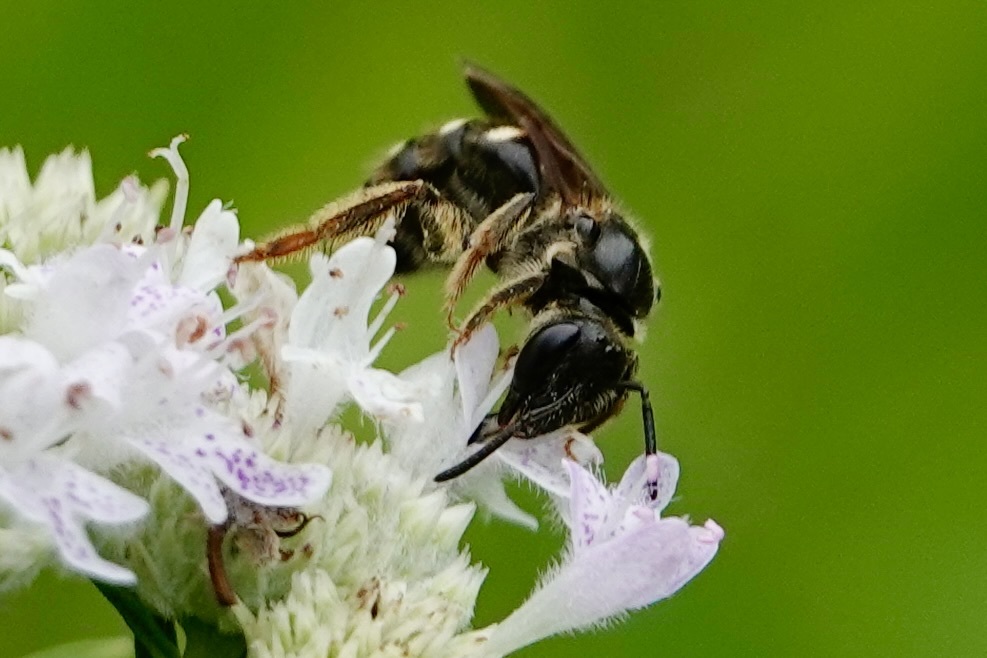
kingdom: Animalia
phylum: Arthropoda
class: Insecta
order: Hymenoptera
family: Halictidae
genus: Lasioglossum
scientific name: Lasioglossum fuscipenne
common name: Brown-winged sweat bee
